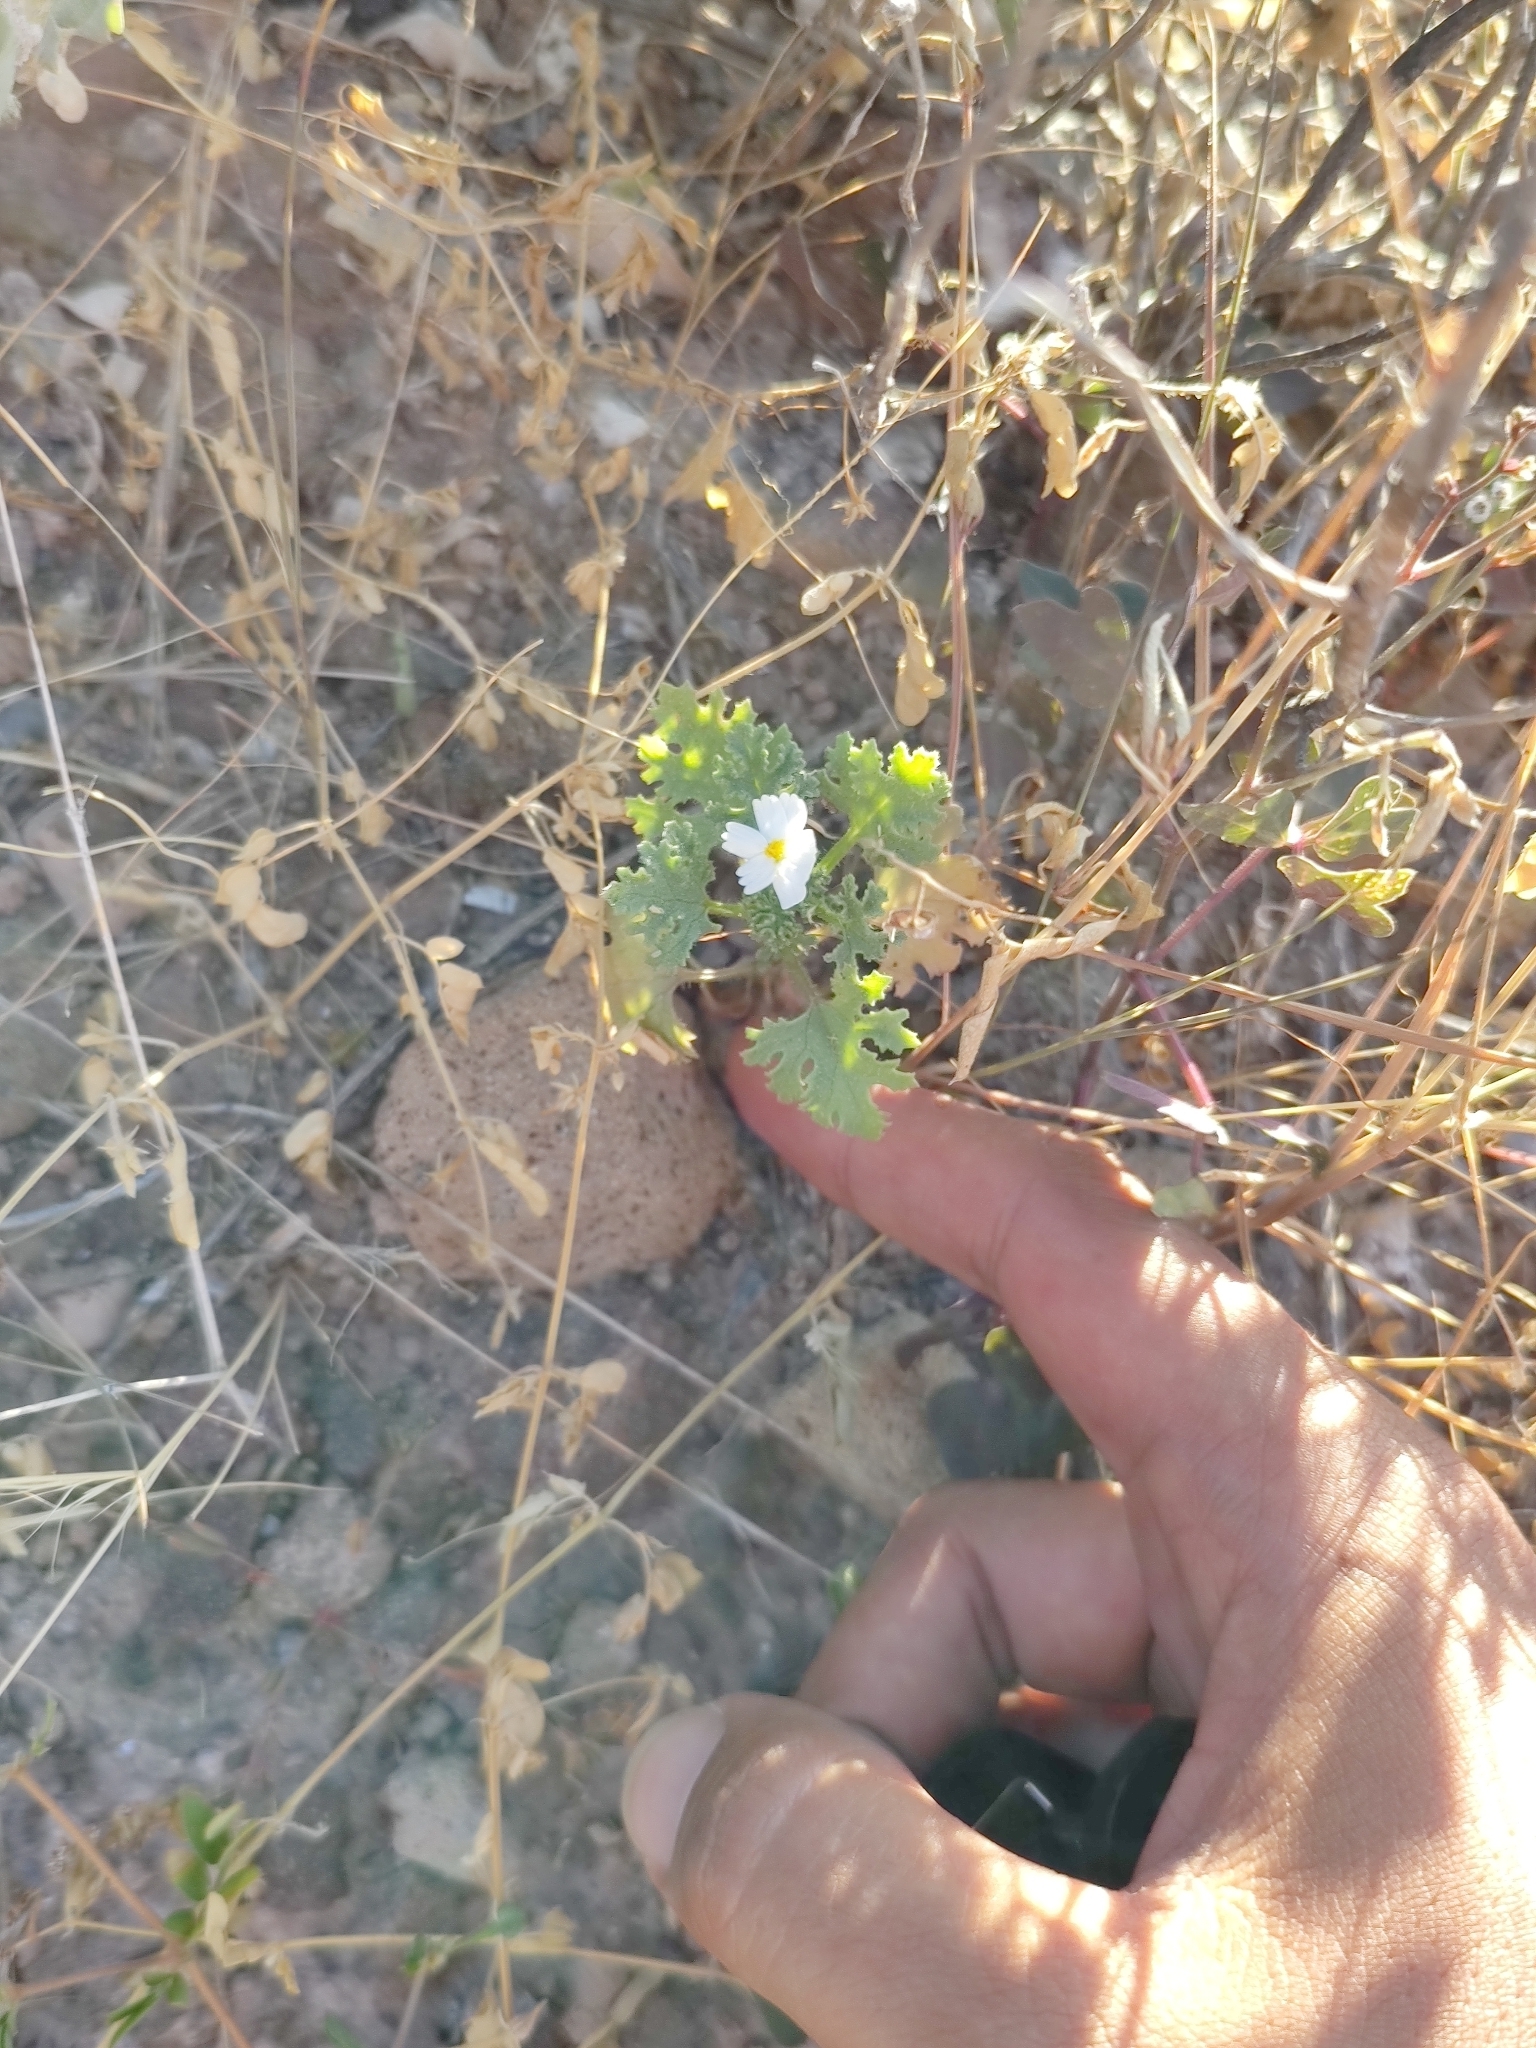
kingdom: Plantae
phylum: Tracheophyta
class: Magnoliopsida
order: Asterales
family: Asteraceae
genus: Perityle
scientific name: Perityle crassifolia
